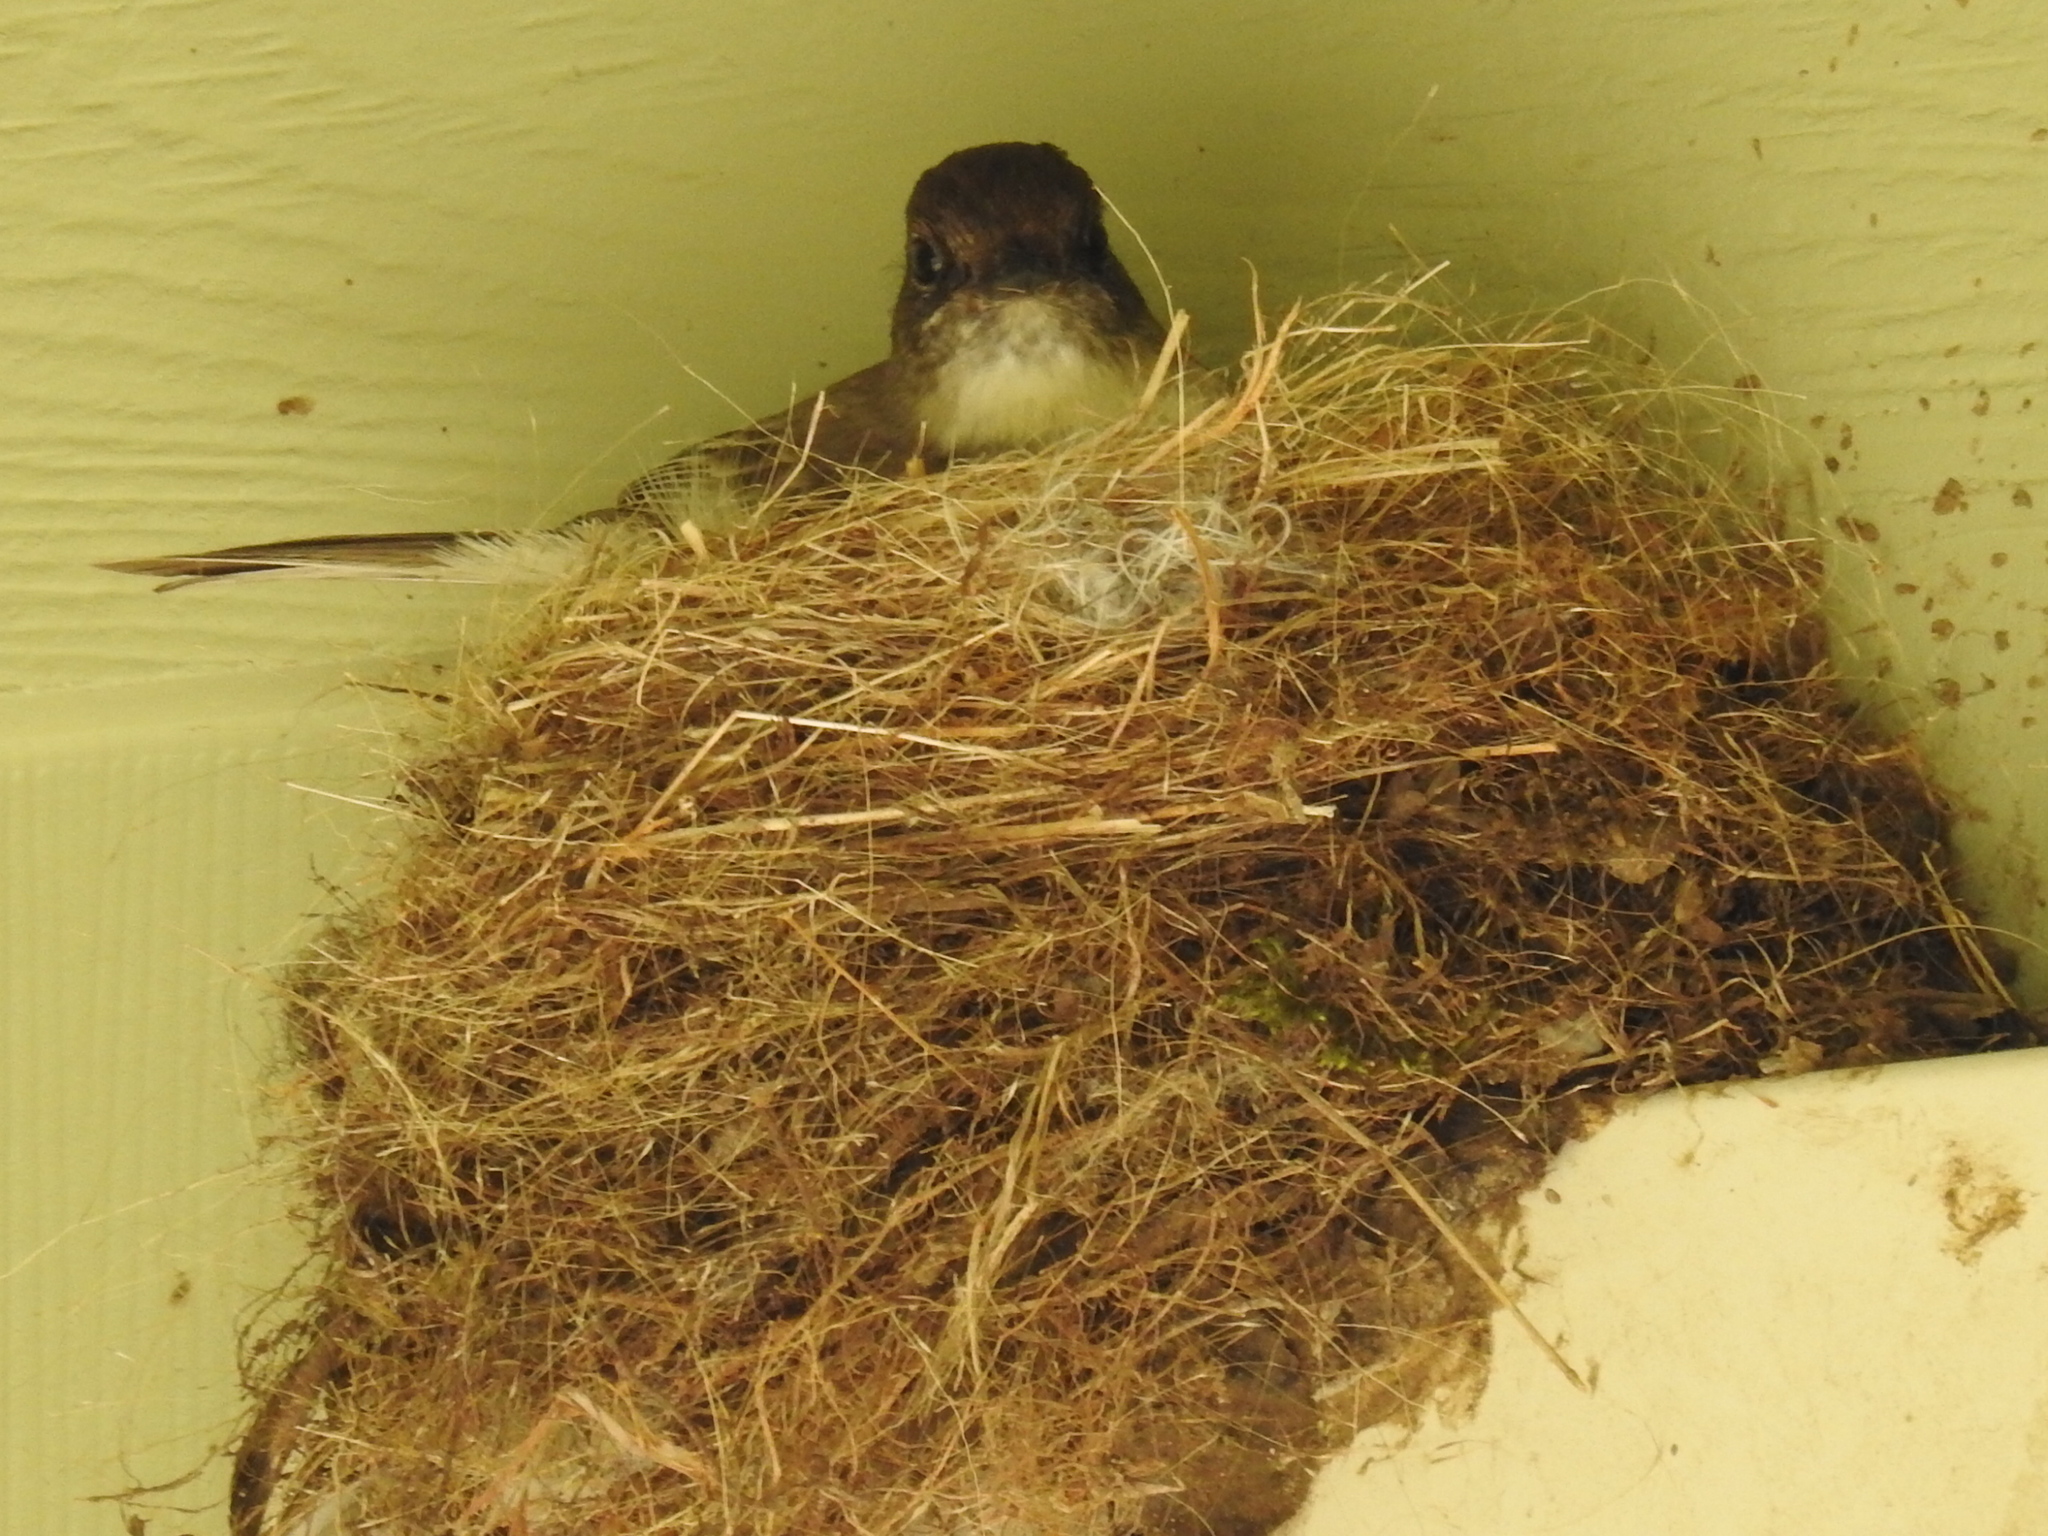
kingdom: Animalia
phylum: Chordata
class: Aves
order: Passeriformes
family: Tyrannidae
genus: Sayornis
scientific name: Sayornis phoebe
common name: Eastern phoebe
